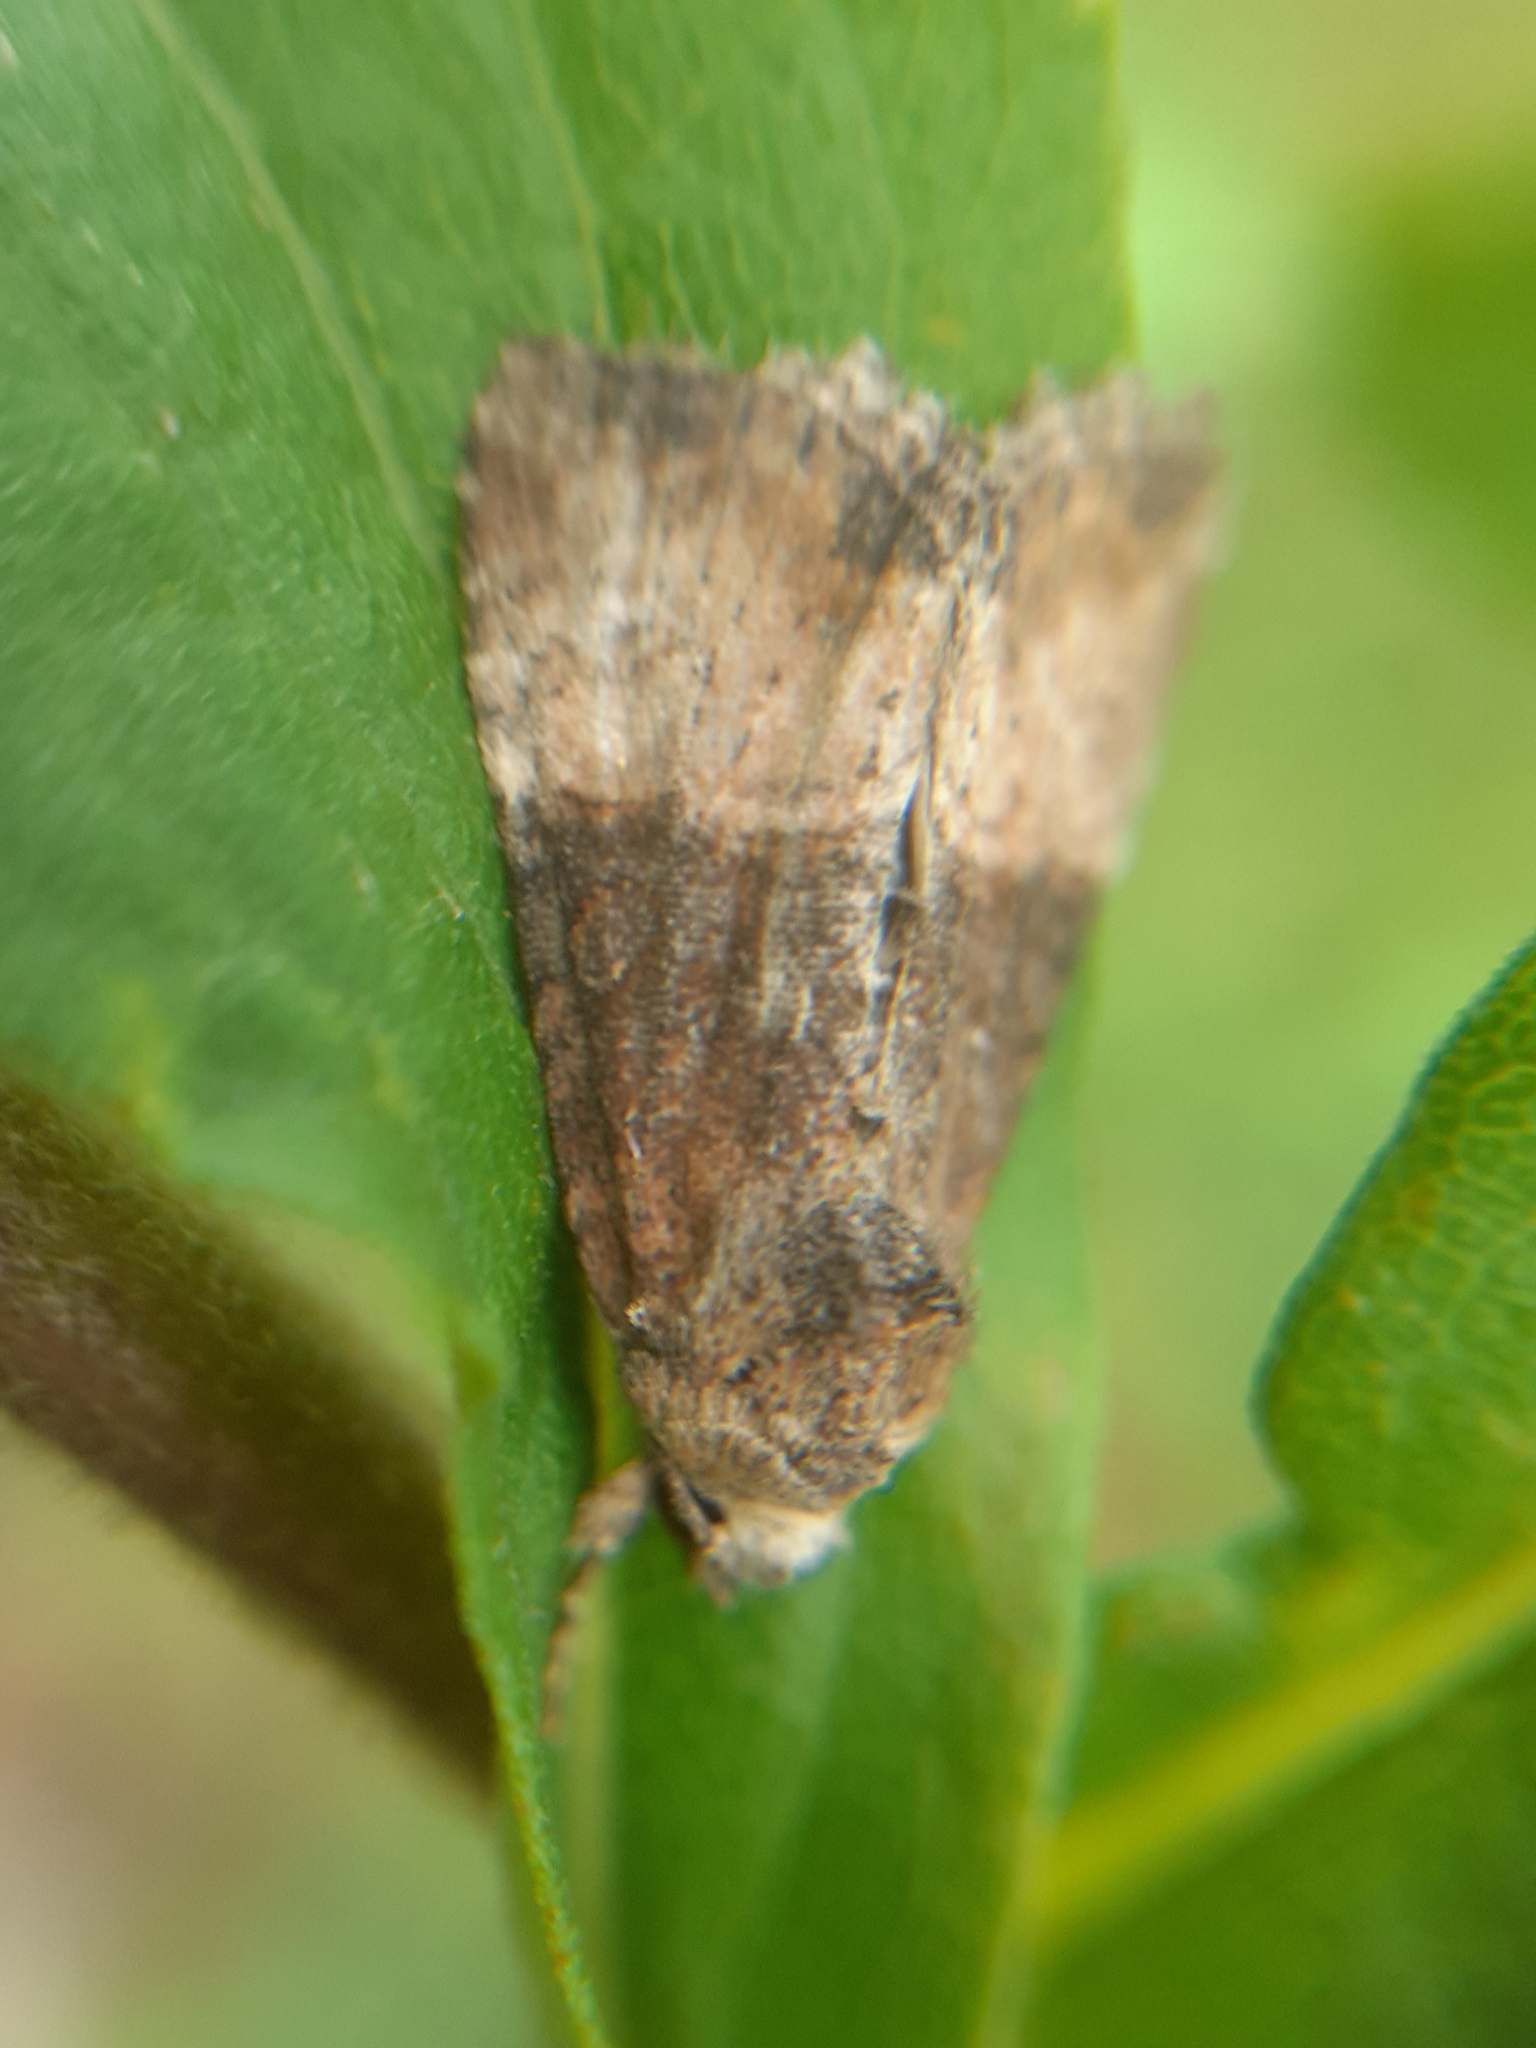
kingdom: Animalia
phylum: Arthropoda
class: Insecta
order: Lepidoptera
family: Noctuidae
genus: Mesoligia
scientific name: Mesoligia furuncula
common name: Cloaked minor
